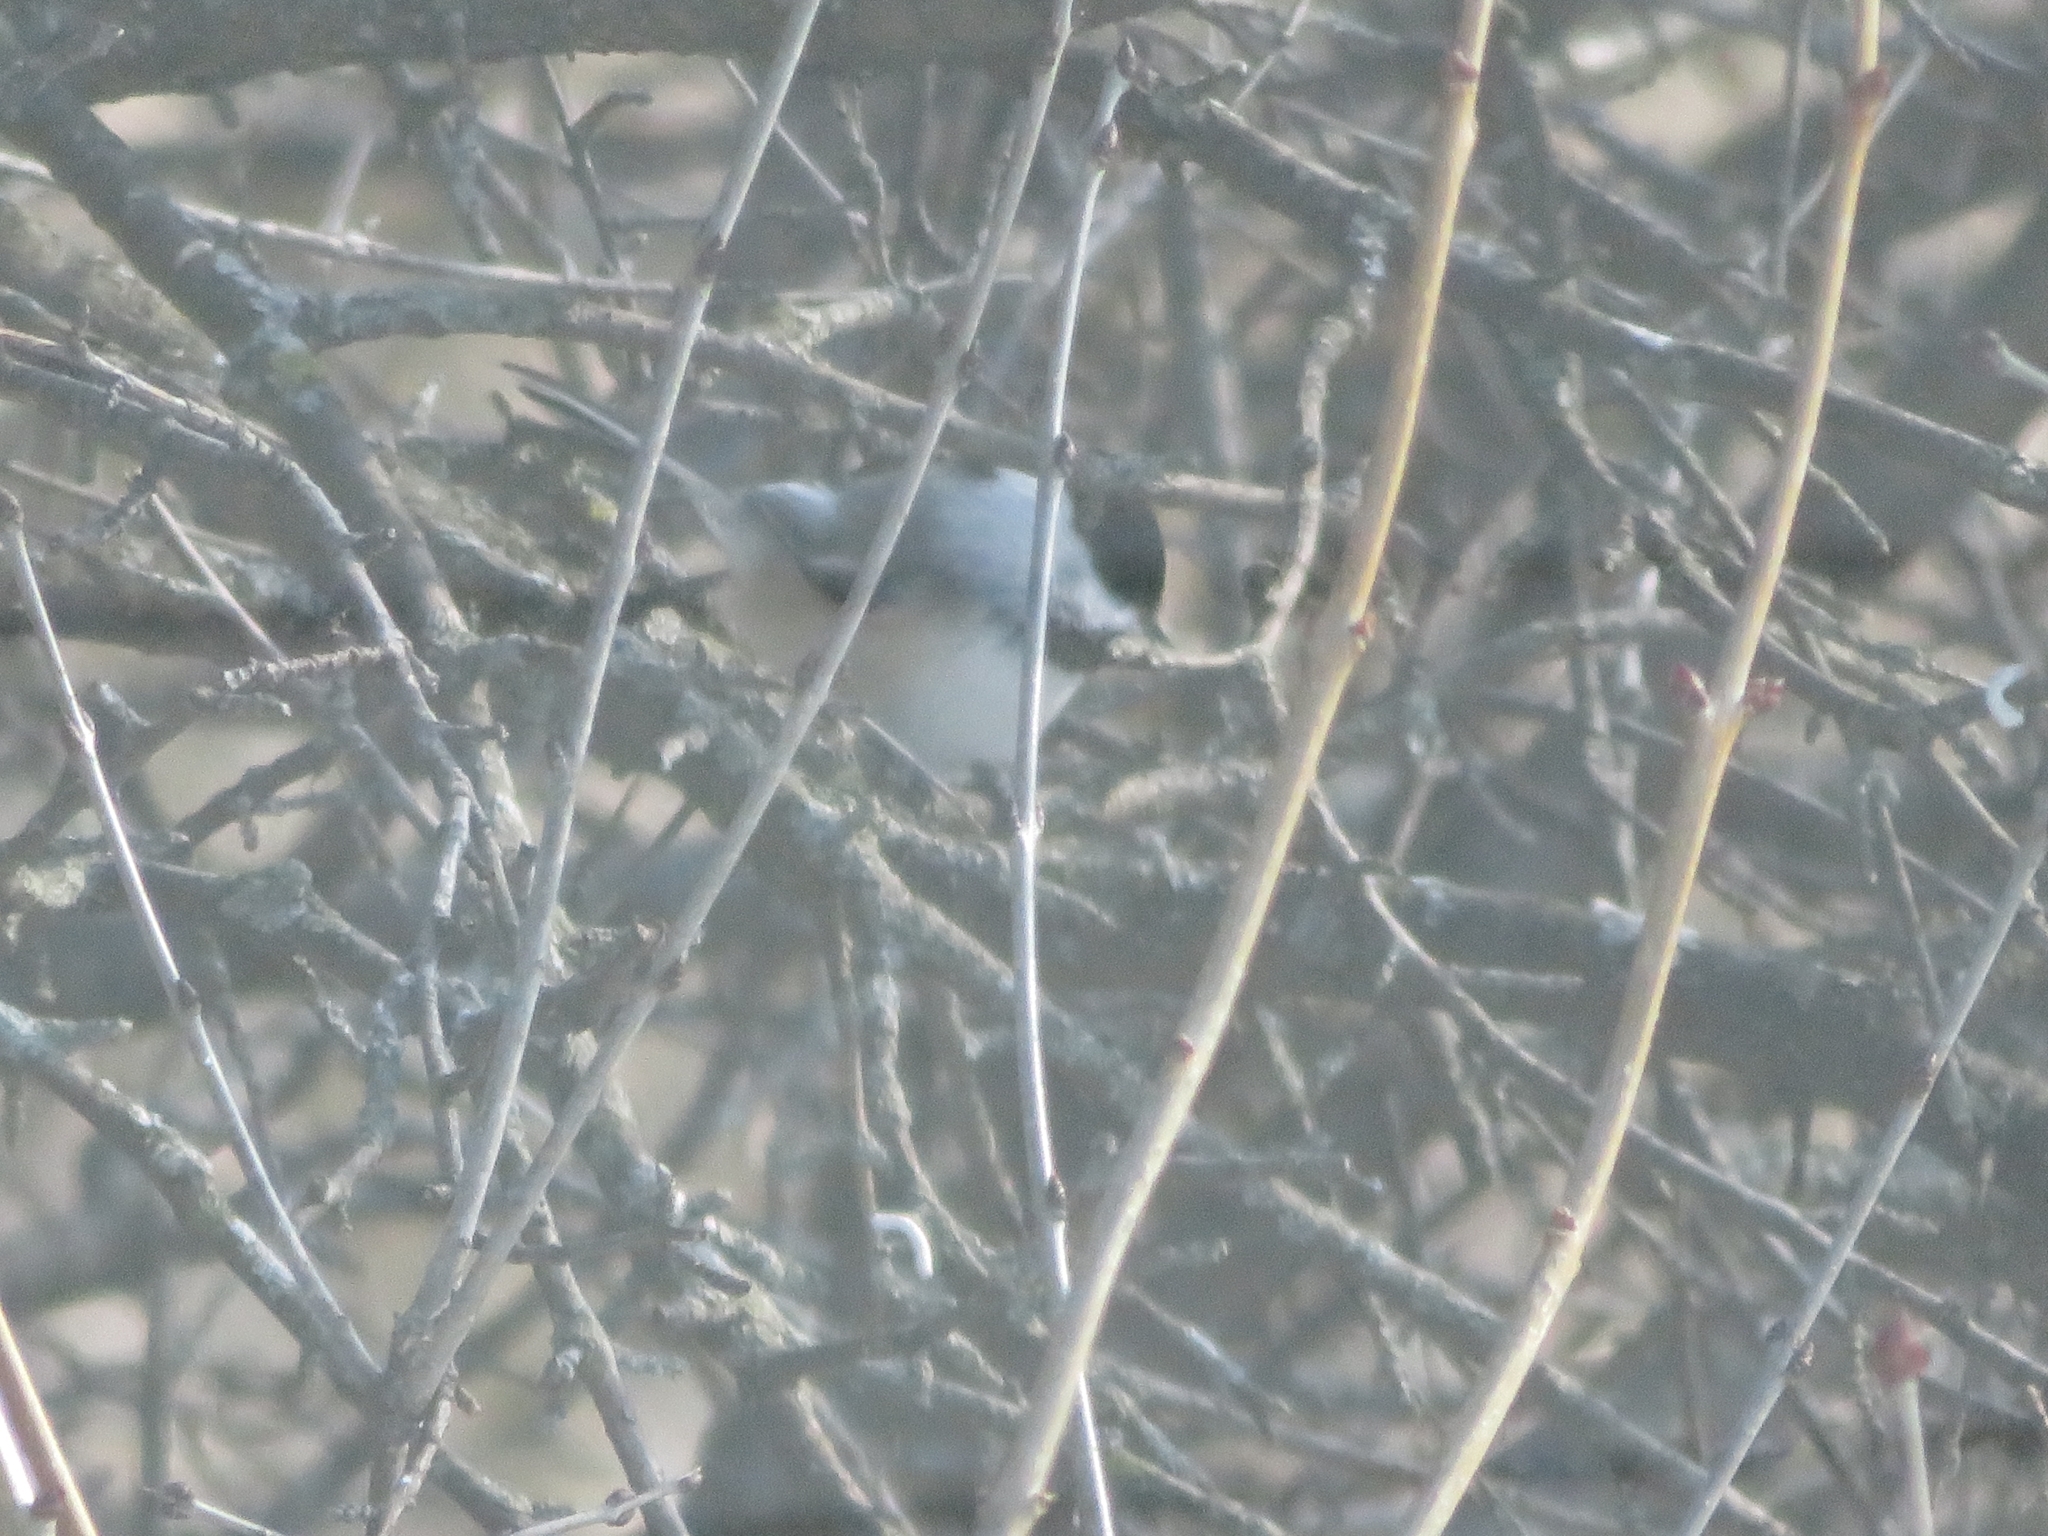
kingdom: Animalia
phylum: Chordata
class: Aves
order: Passeriformes
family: Paridae
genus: Poecile
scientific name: Poecile atricapillus
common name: Black-capped chickadee
